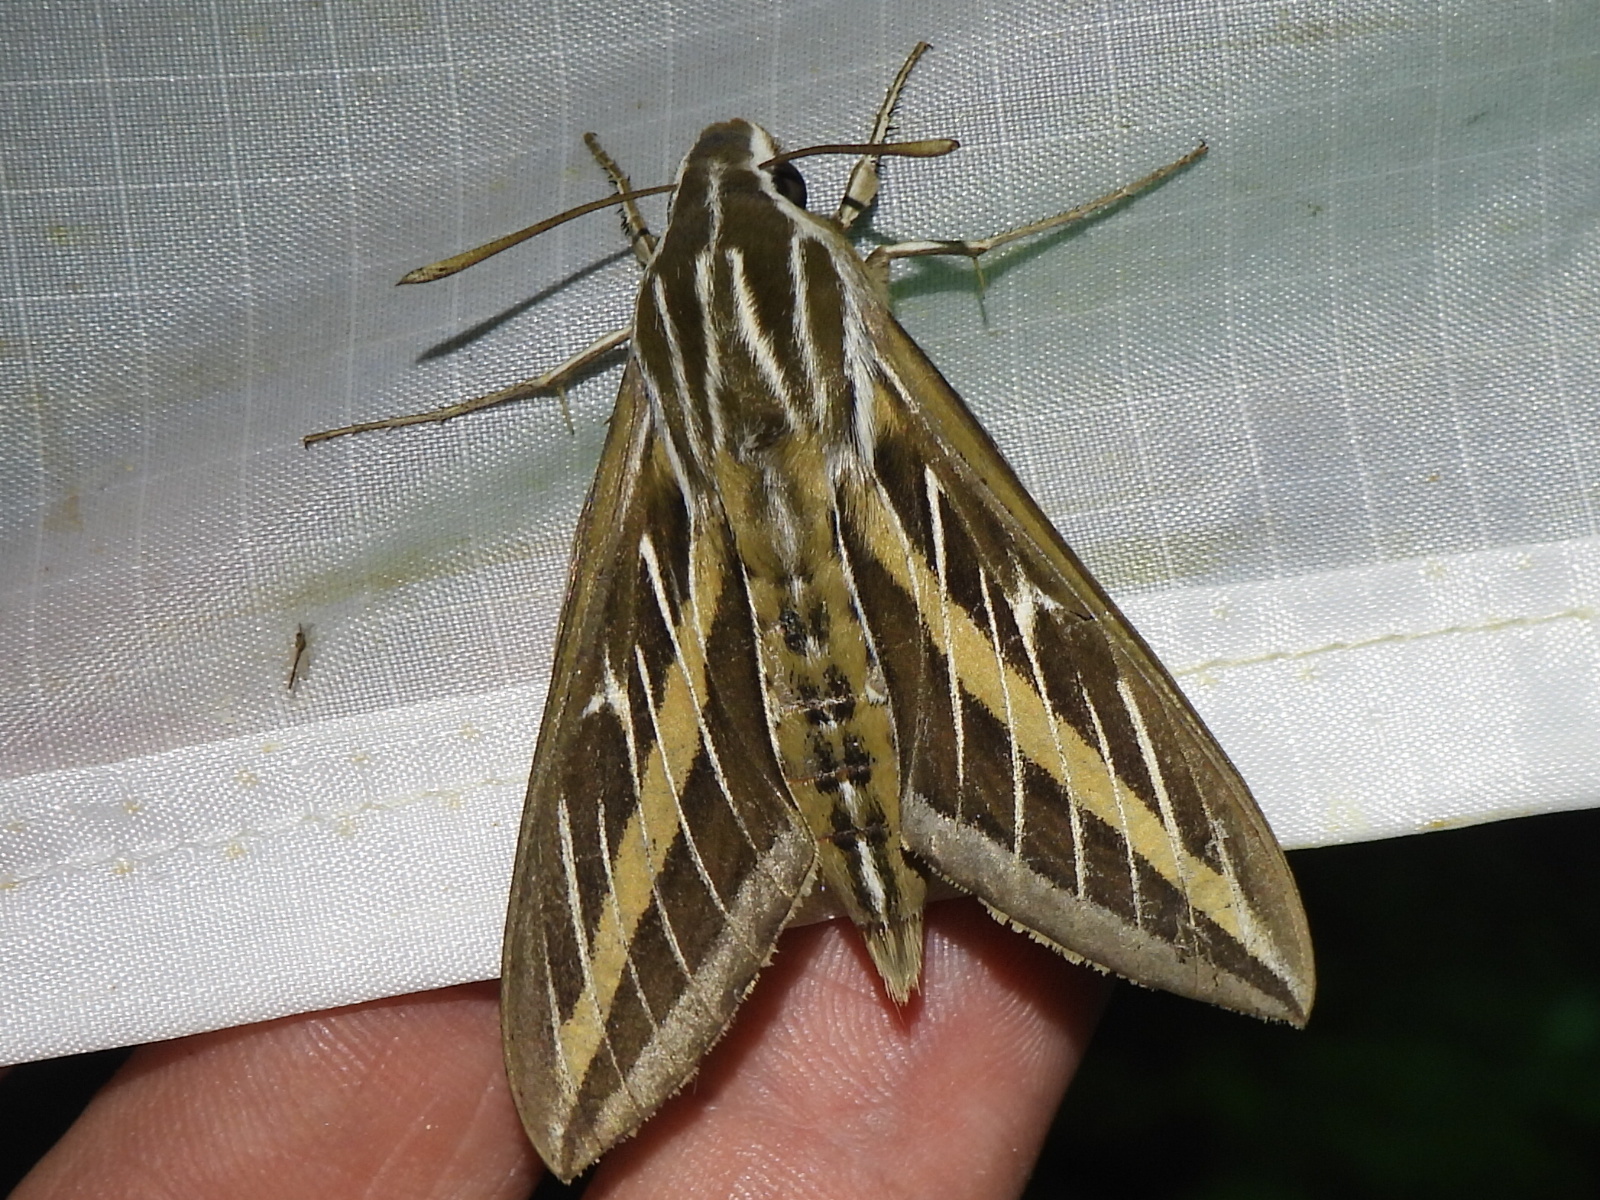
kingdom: Animalia
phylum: Arthropoda
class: Insecta
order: Lepidoptera
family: Sphingidae
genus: Hyles
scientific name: Hyles lineata
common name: White-lined sphinx
